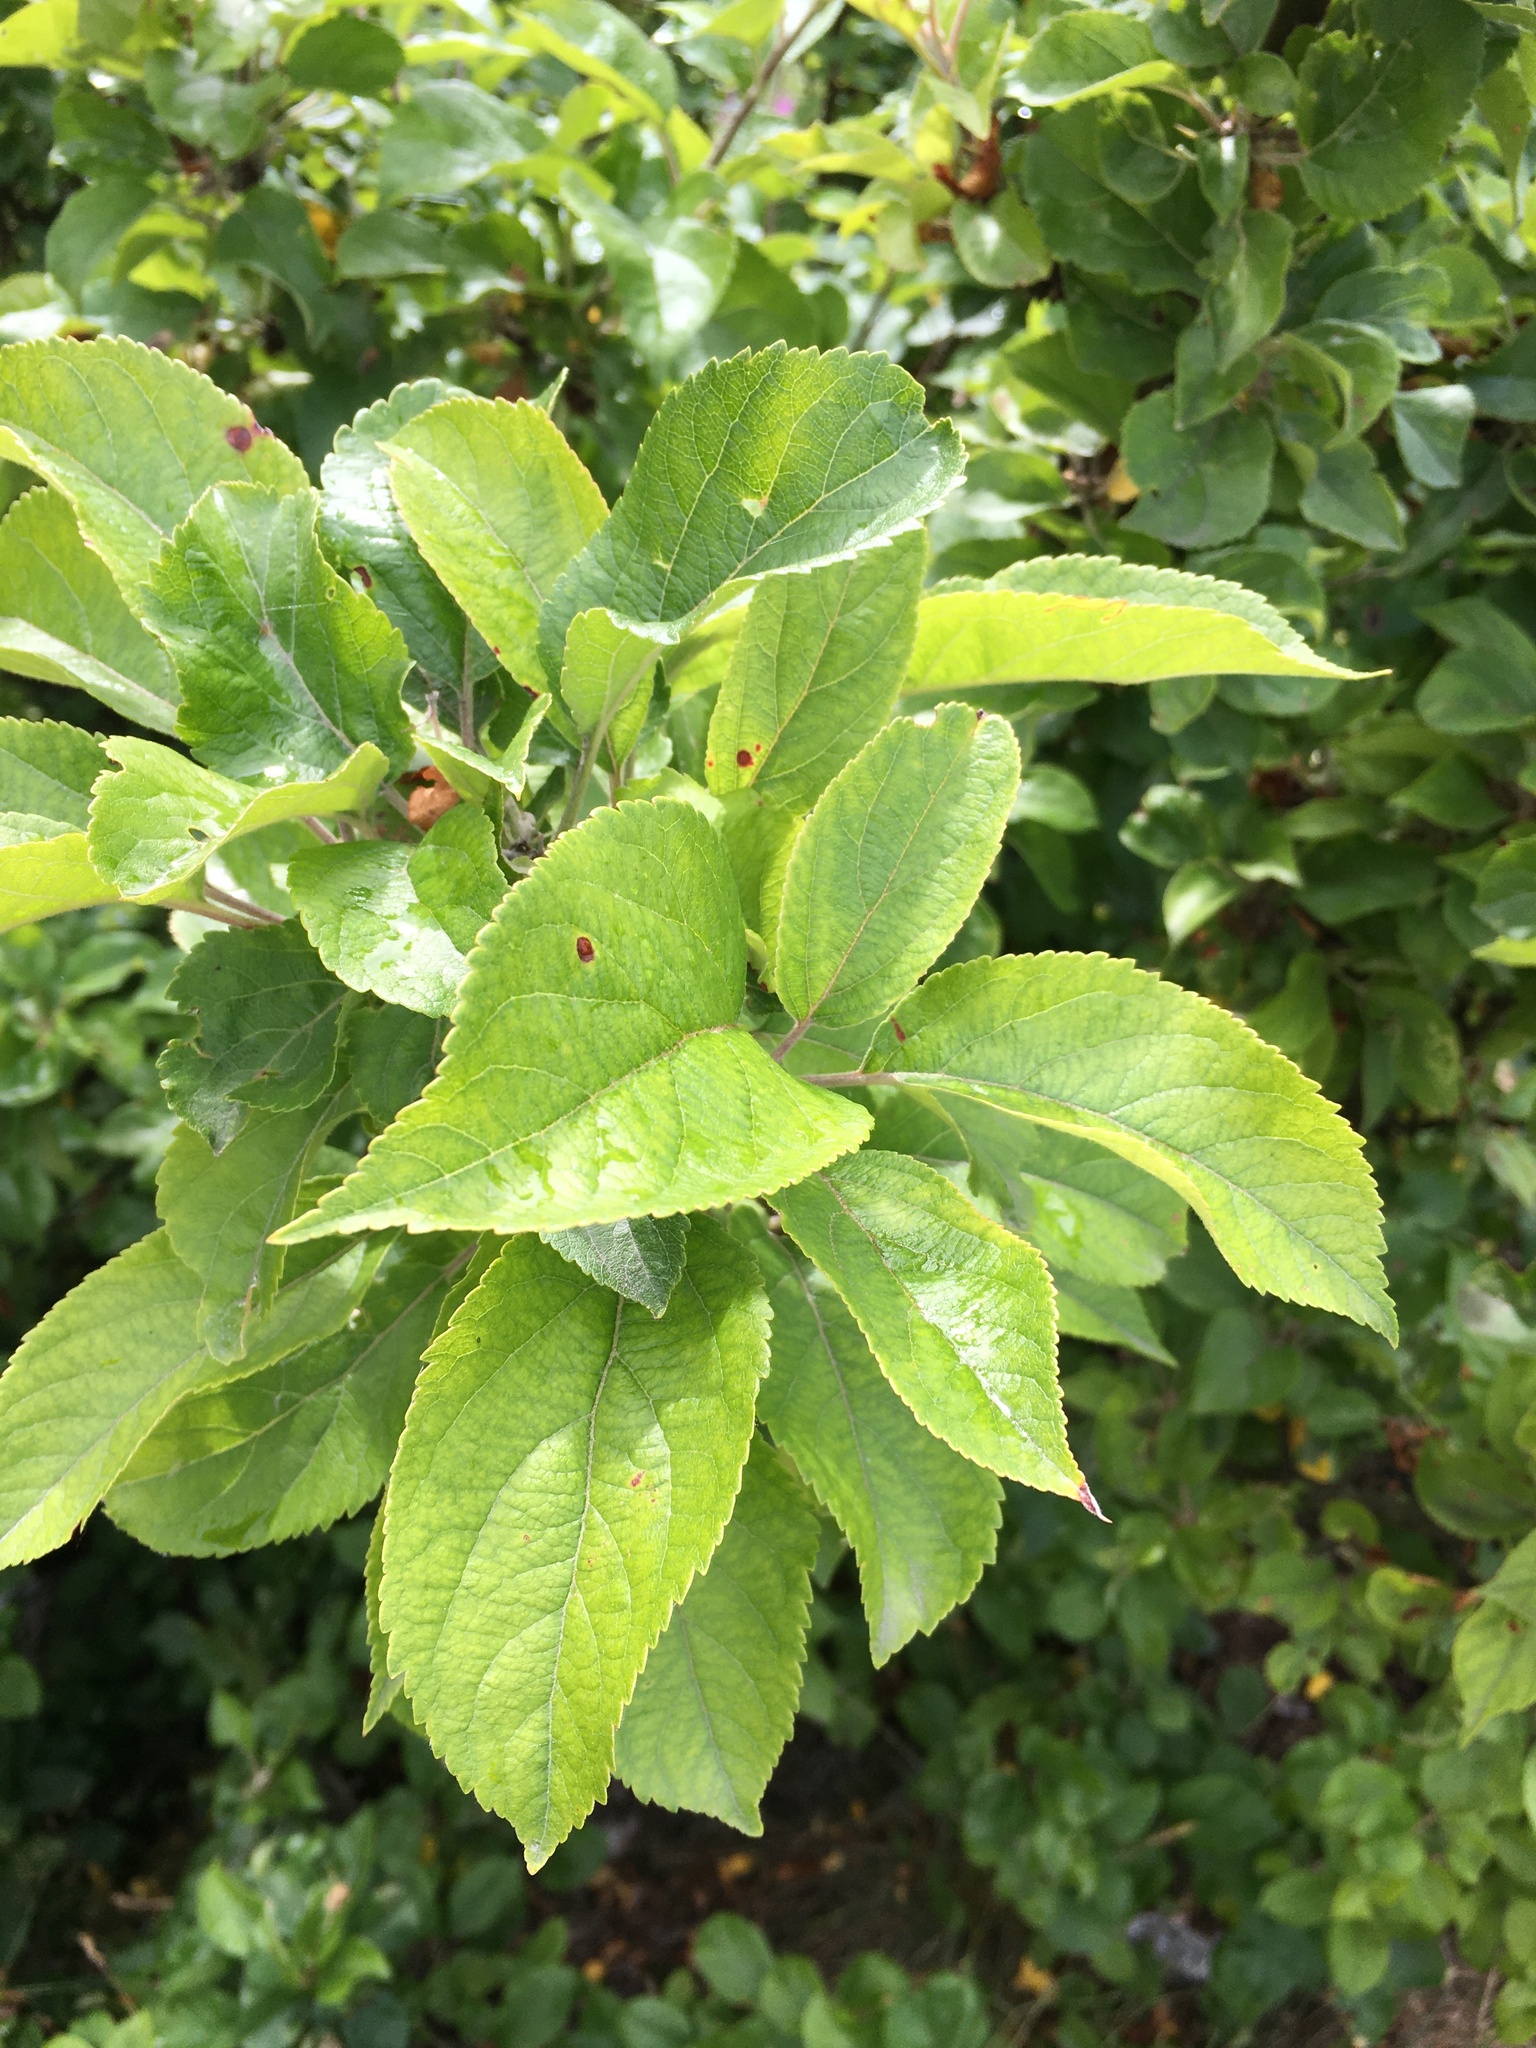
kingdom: Plantae
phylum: Tracheophyta
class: Magnoliopsida
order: Rosales
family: Rosaceae
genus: Malus
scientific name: Malus domestica
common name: Apple
